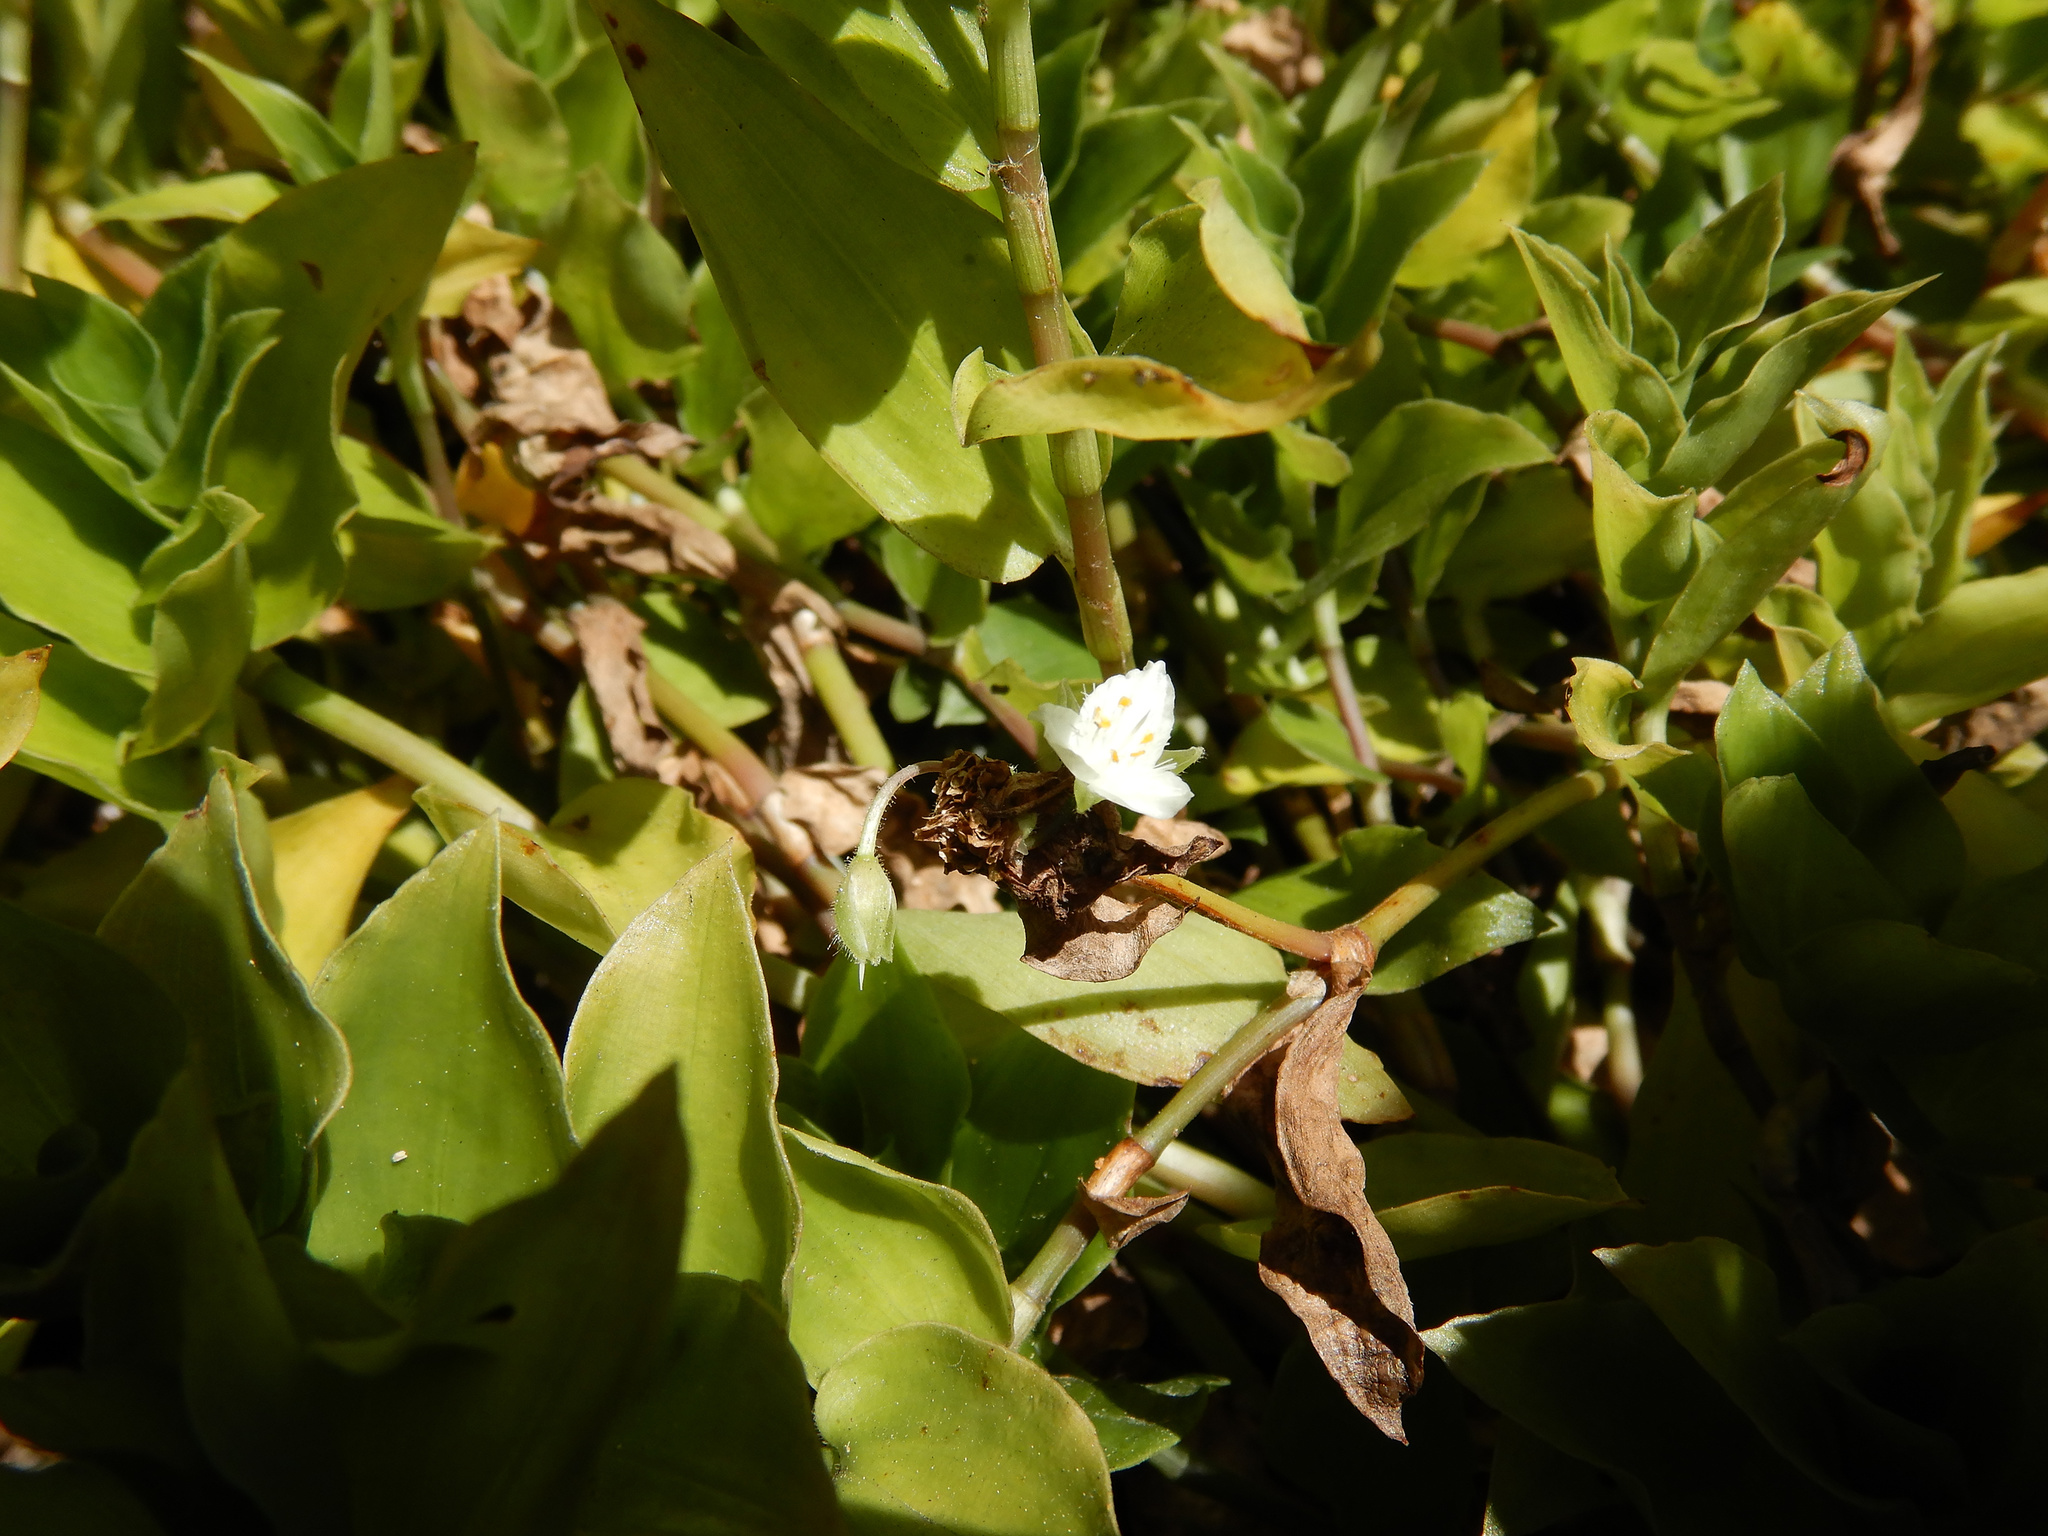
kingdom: Plantae
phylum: Tracheophyta
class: Liliopsida
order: Commelinales
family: Commelinaceae
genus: Tradescantia
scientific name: Tradescantia fluminensis
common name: Wandering-jew
